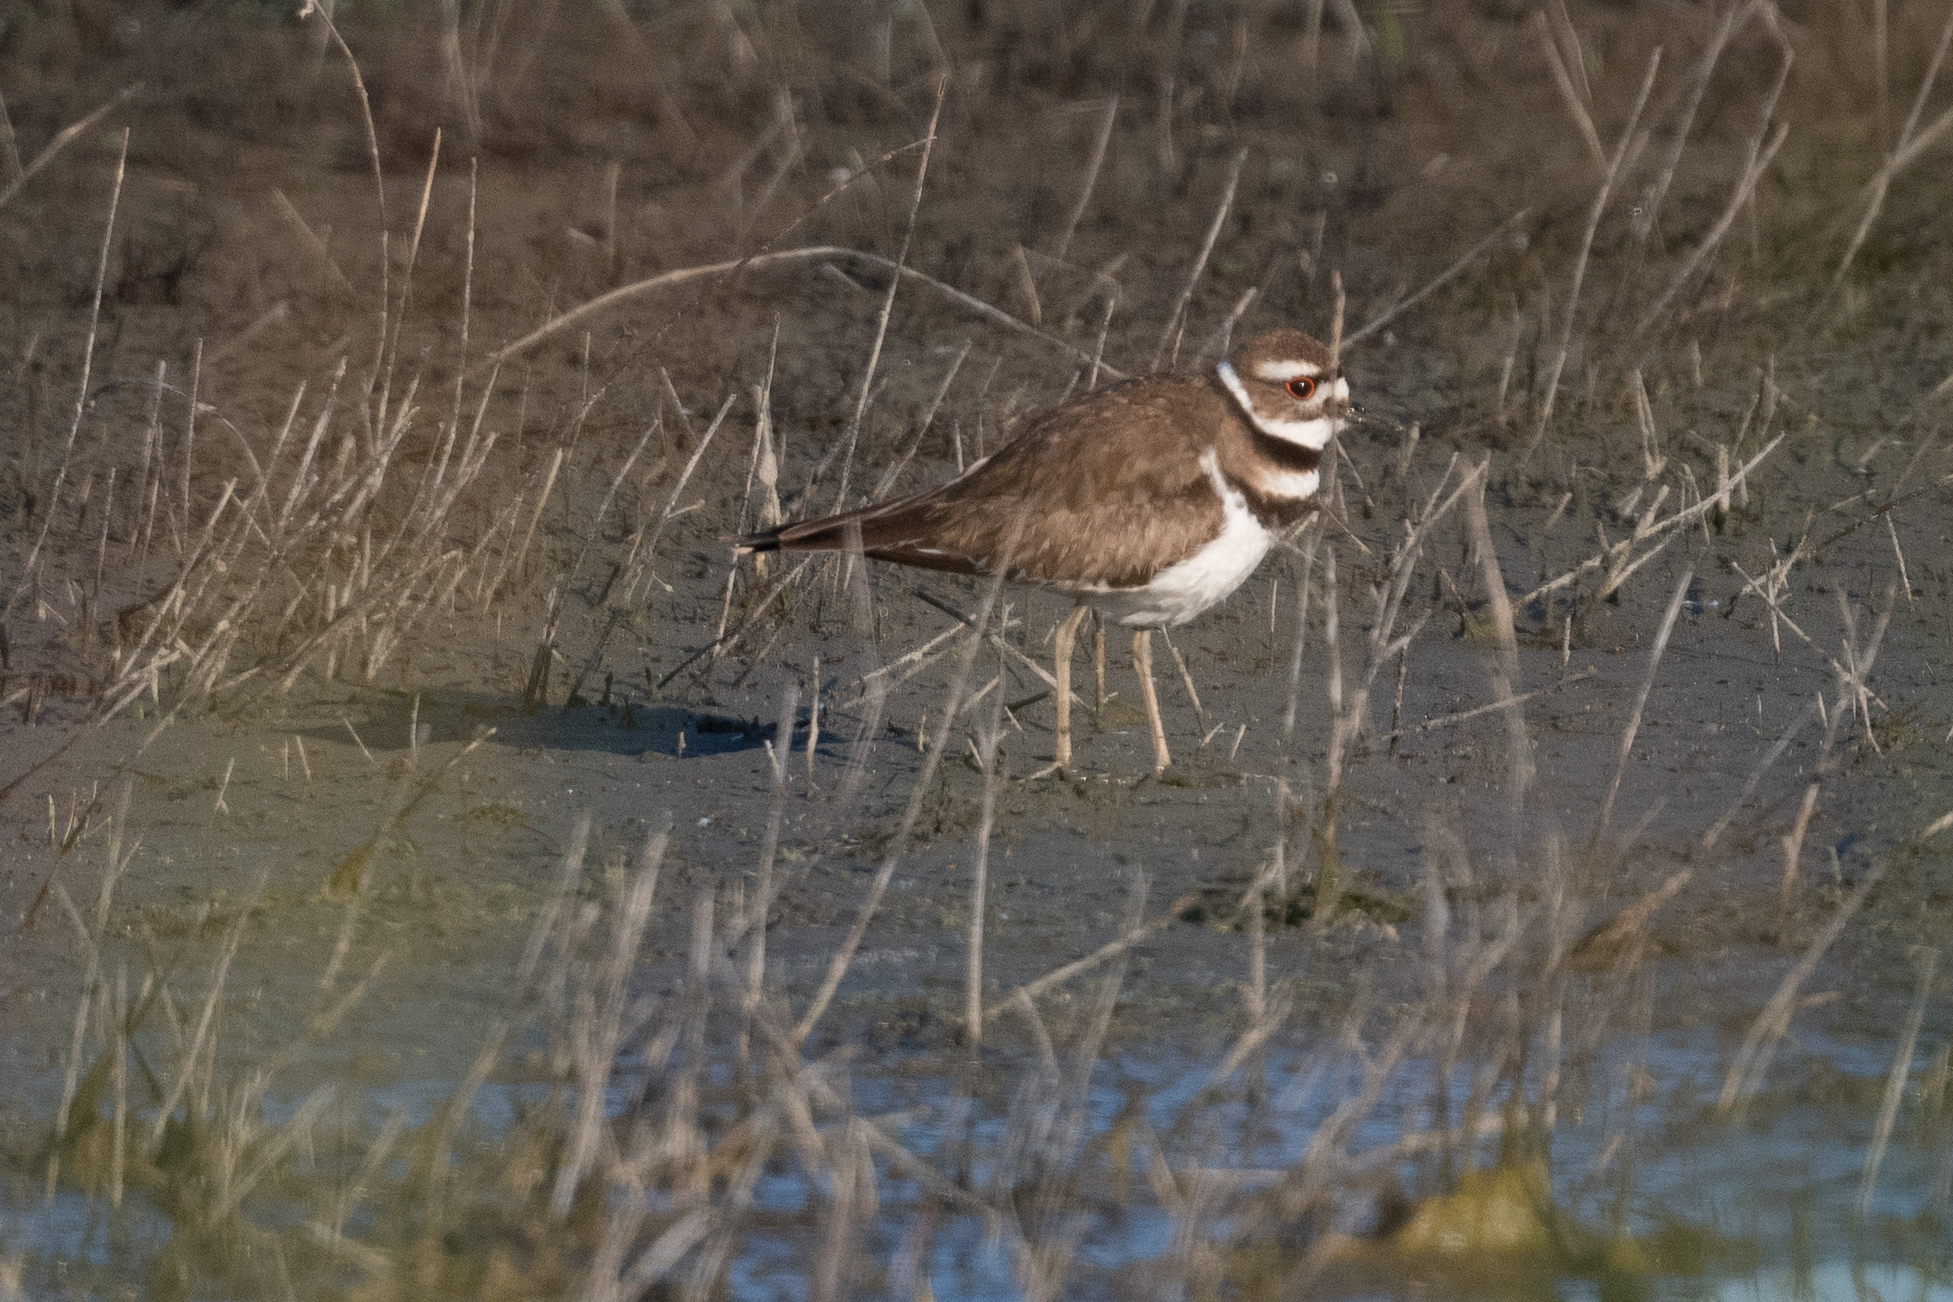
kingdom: Animalia
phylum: Chordata
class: Aves
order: Charadriiformes
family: Charadriidae
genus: Charadrius
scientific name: Charadrius vociferus
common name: Killdeer
